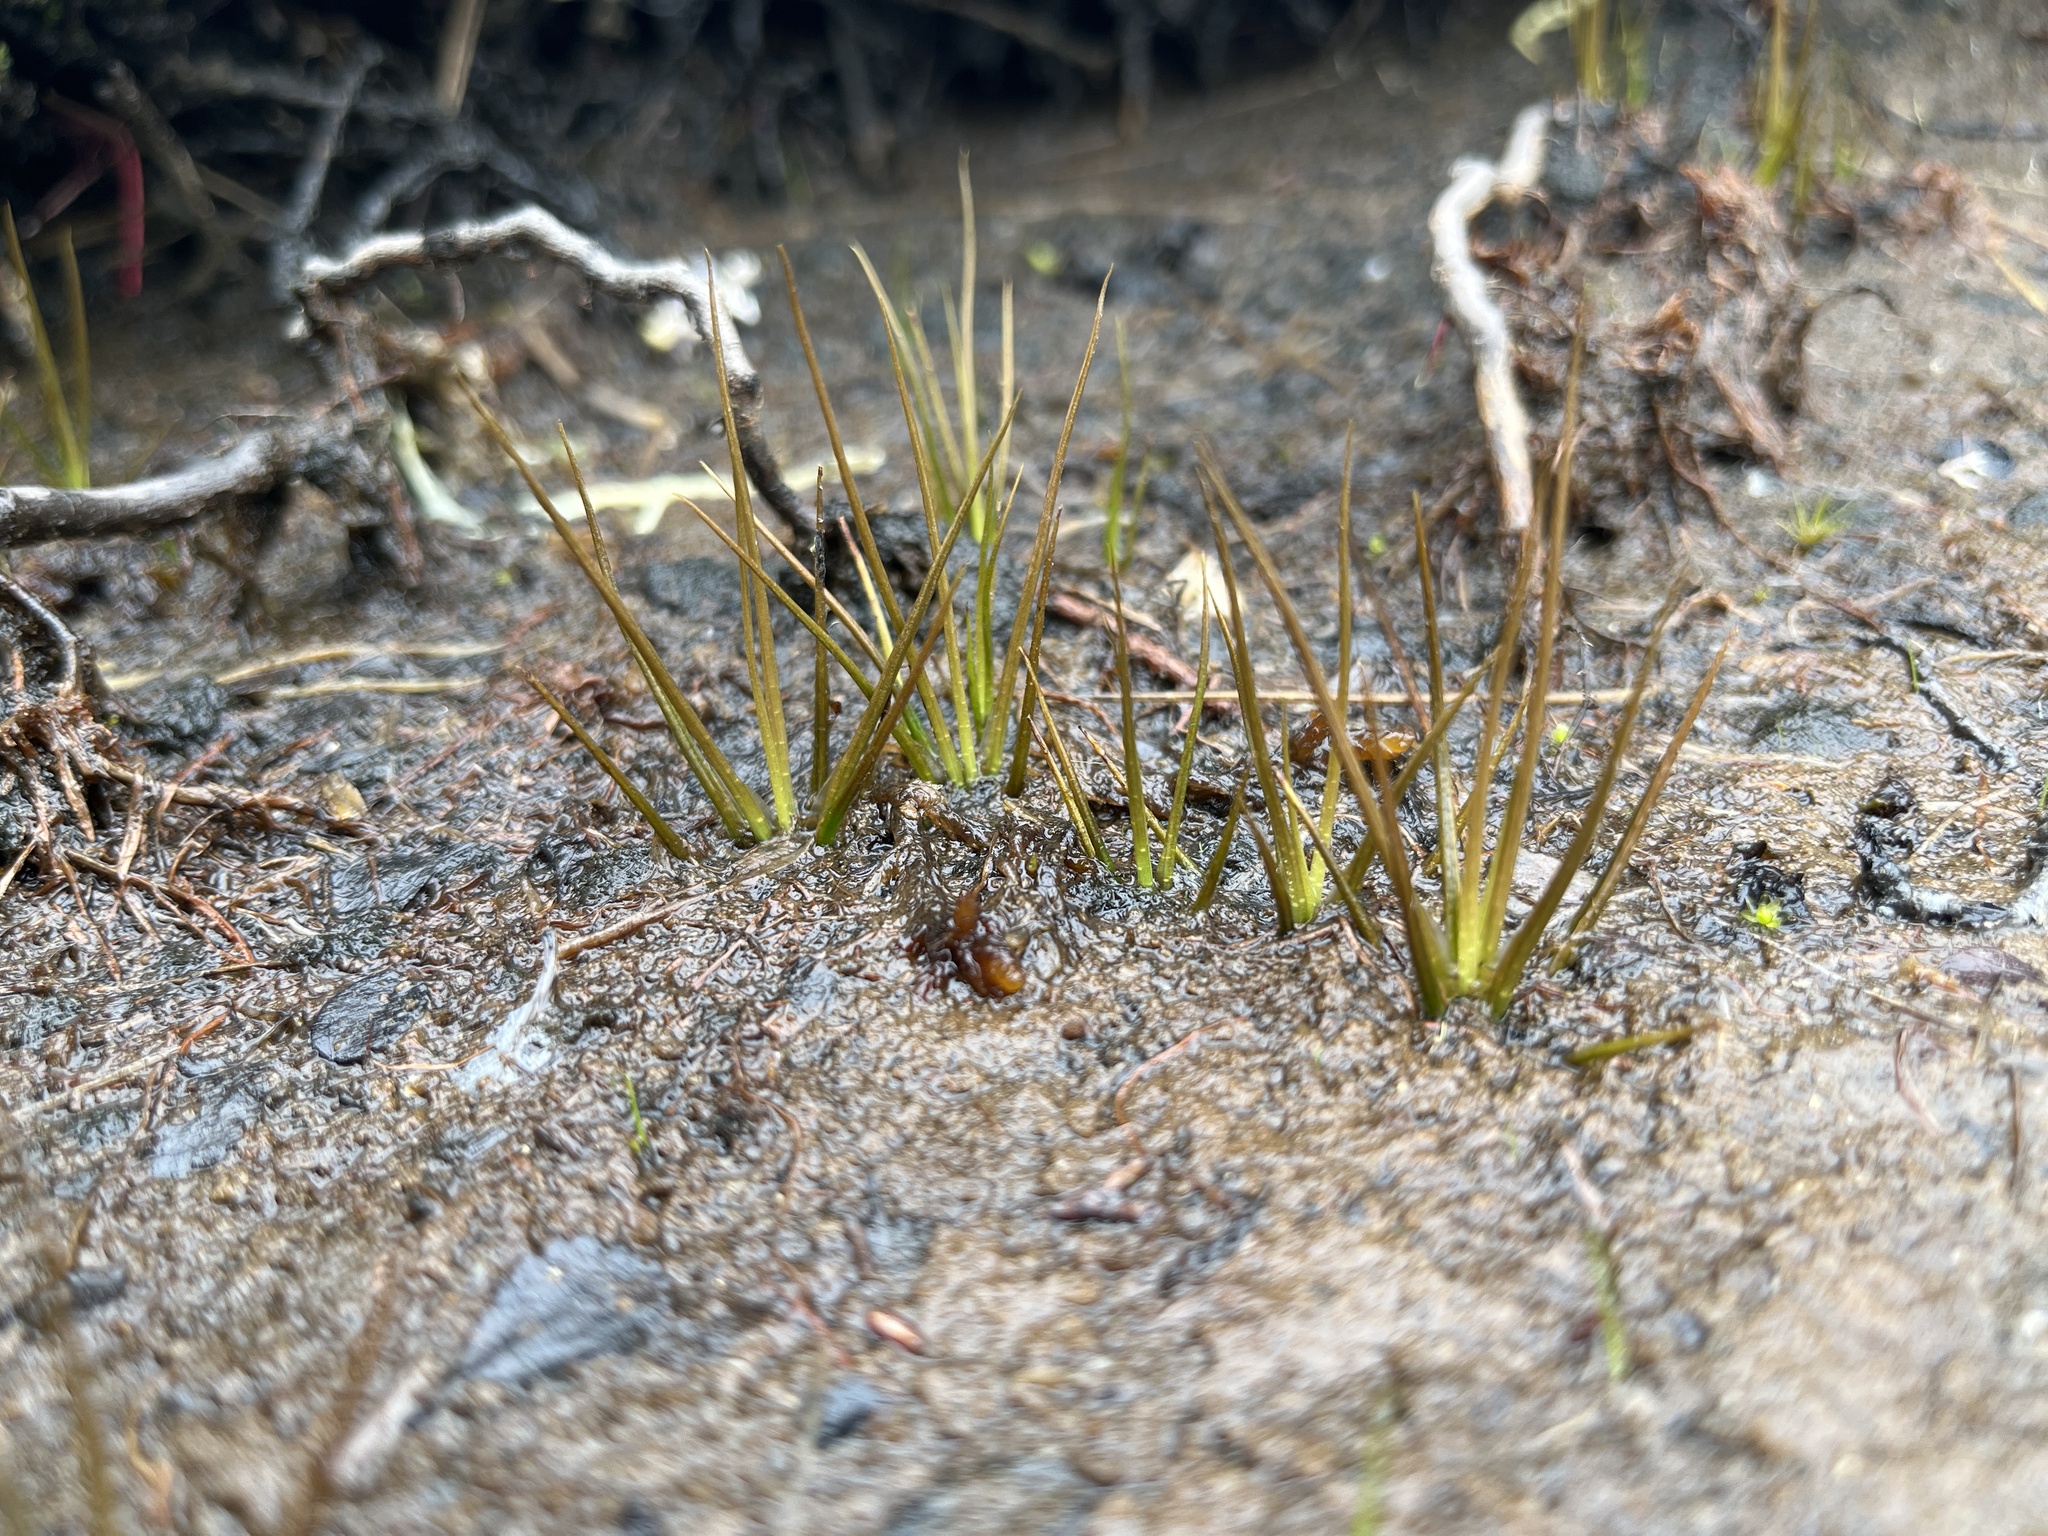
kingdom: Plantae
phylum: Tracheophyta
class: Lycopodiopsida
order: Isoetales
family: Isoetaceae
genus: Isoetes
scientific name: Isoetes echinospora
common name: Spring quillwort
